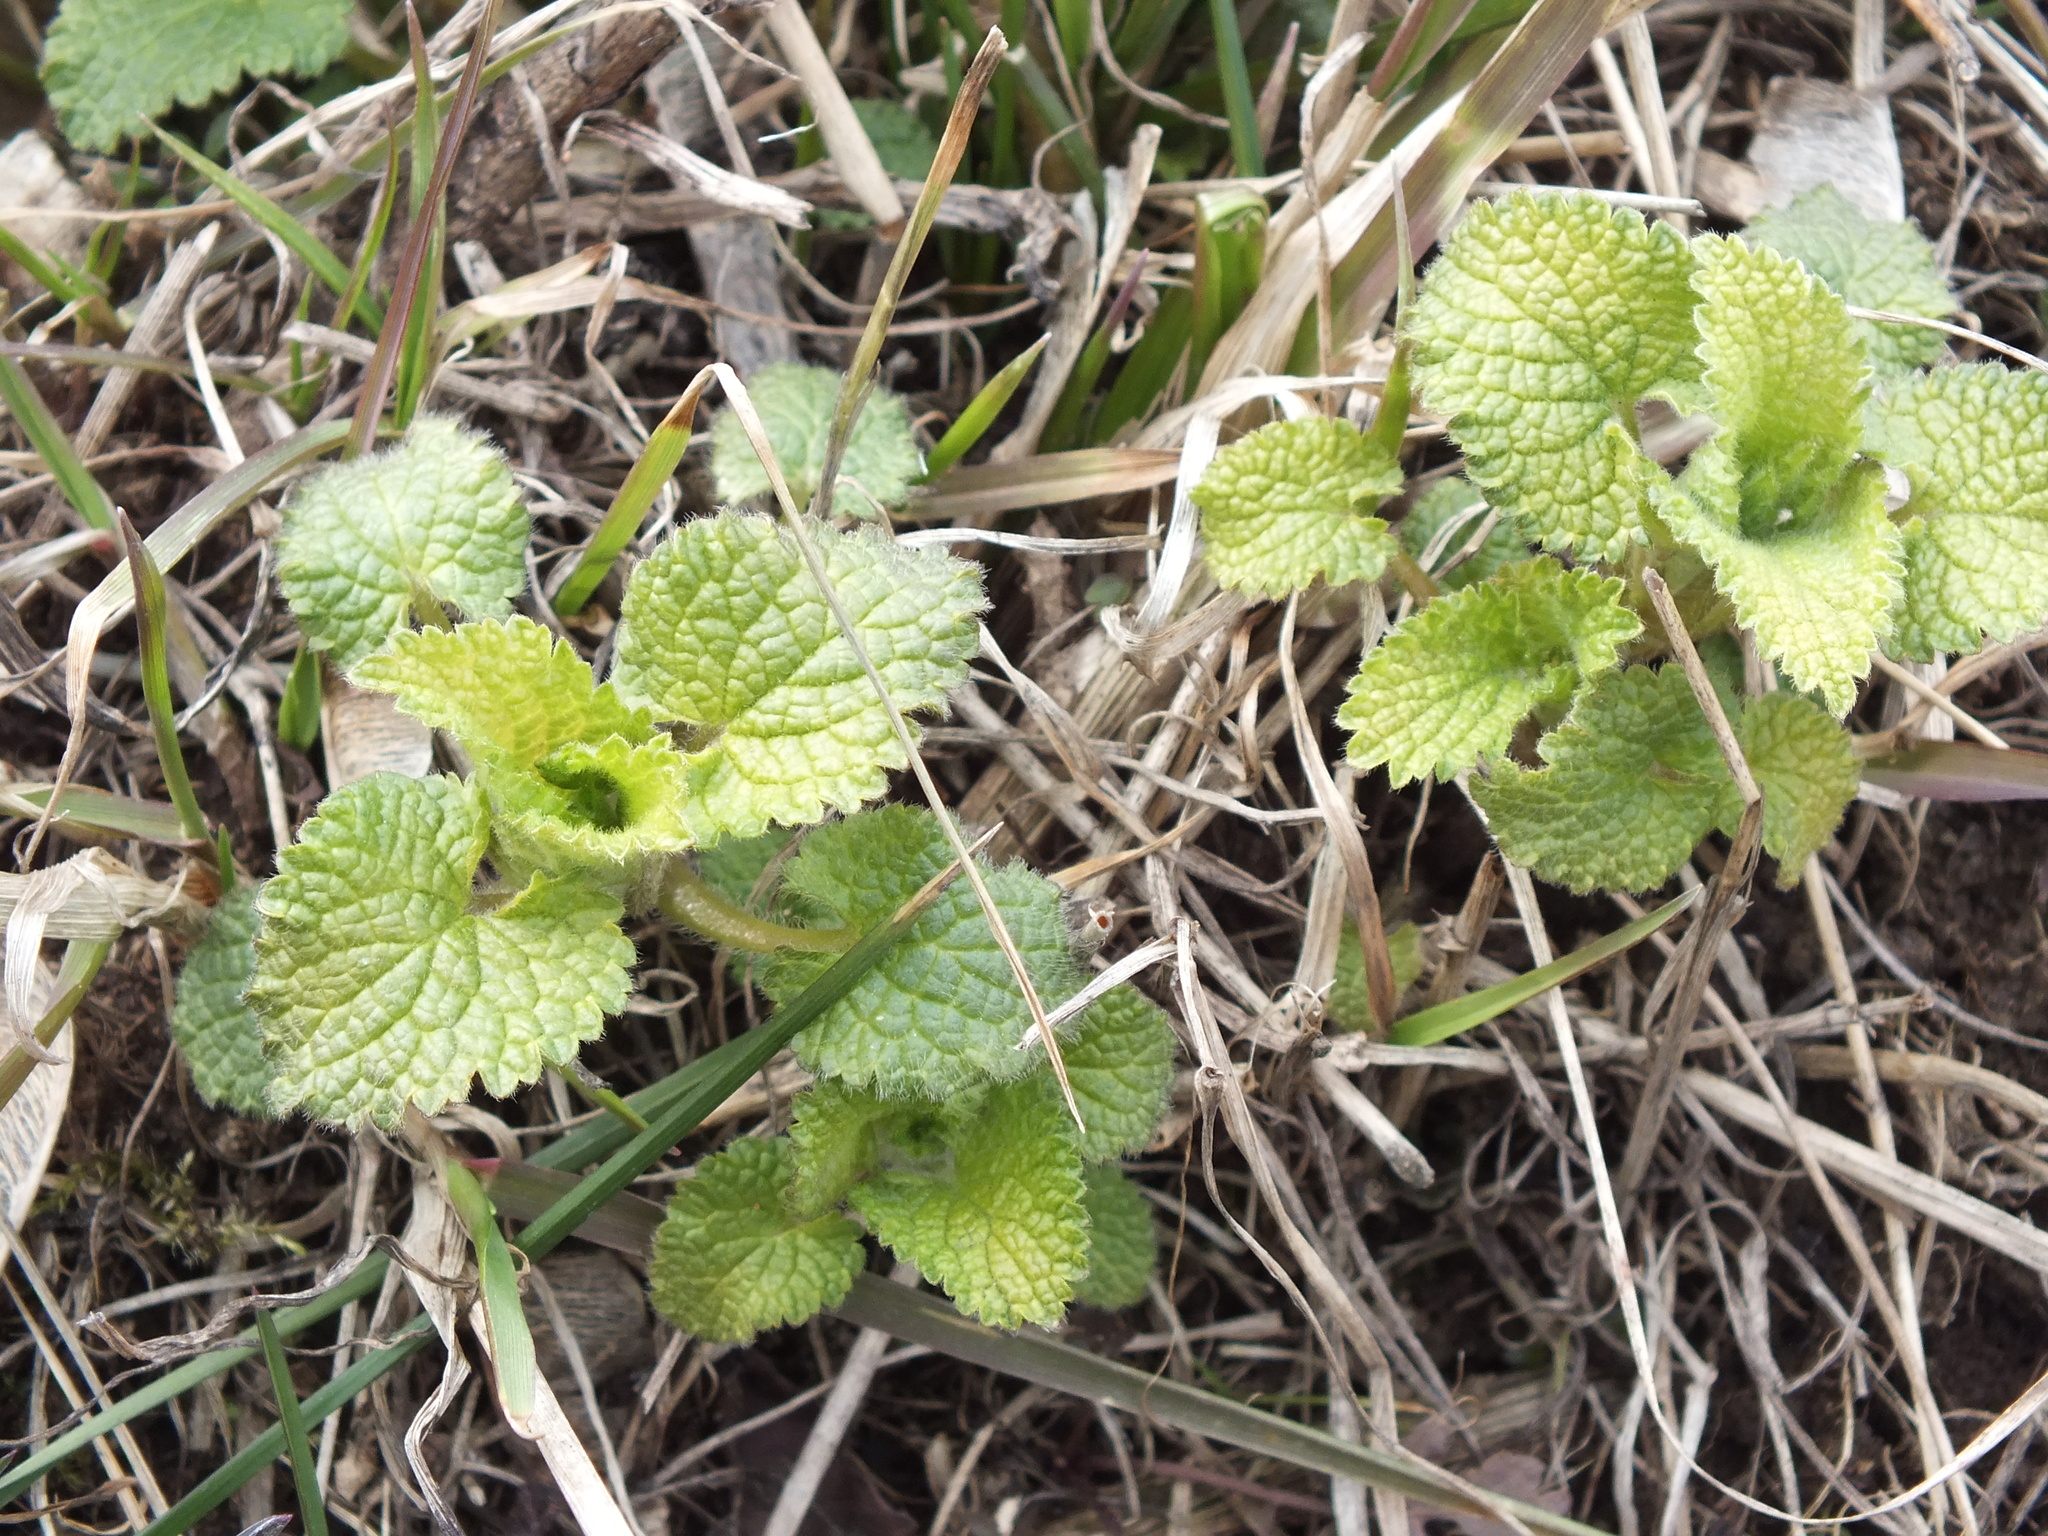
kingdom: Plantae
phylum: Tracheophyta
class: Magnoliopsida
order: Lamiales
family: Lamiaceae
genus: Lamium
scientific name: Lamium album
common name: White dead-nettle
